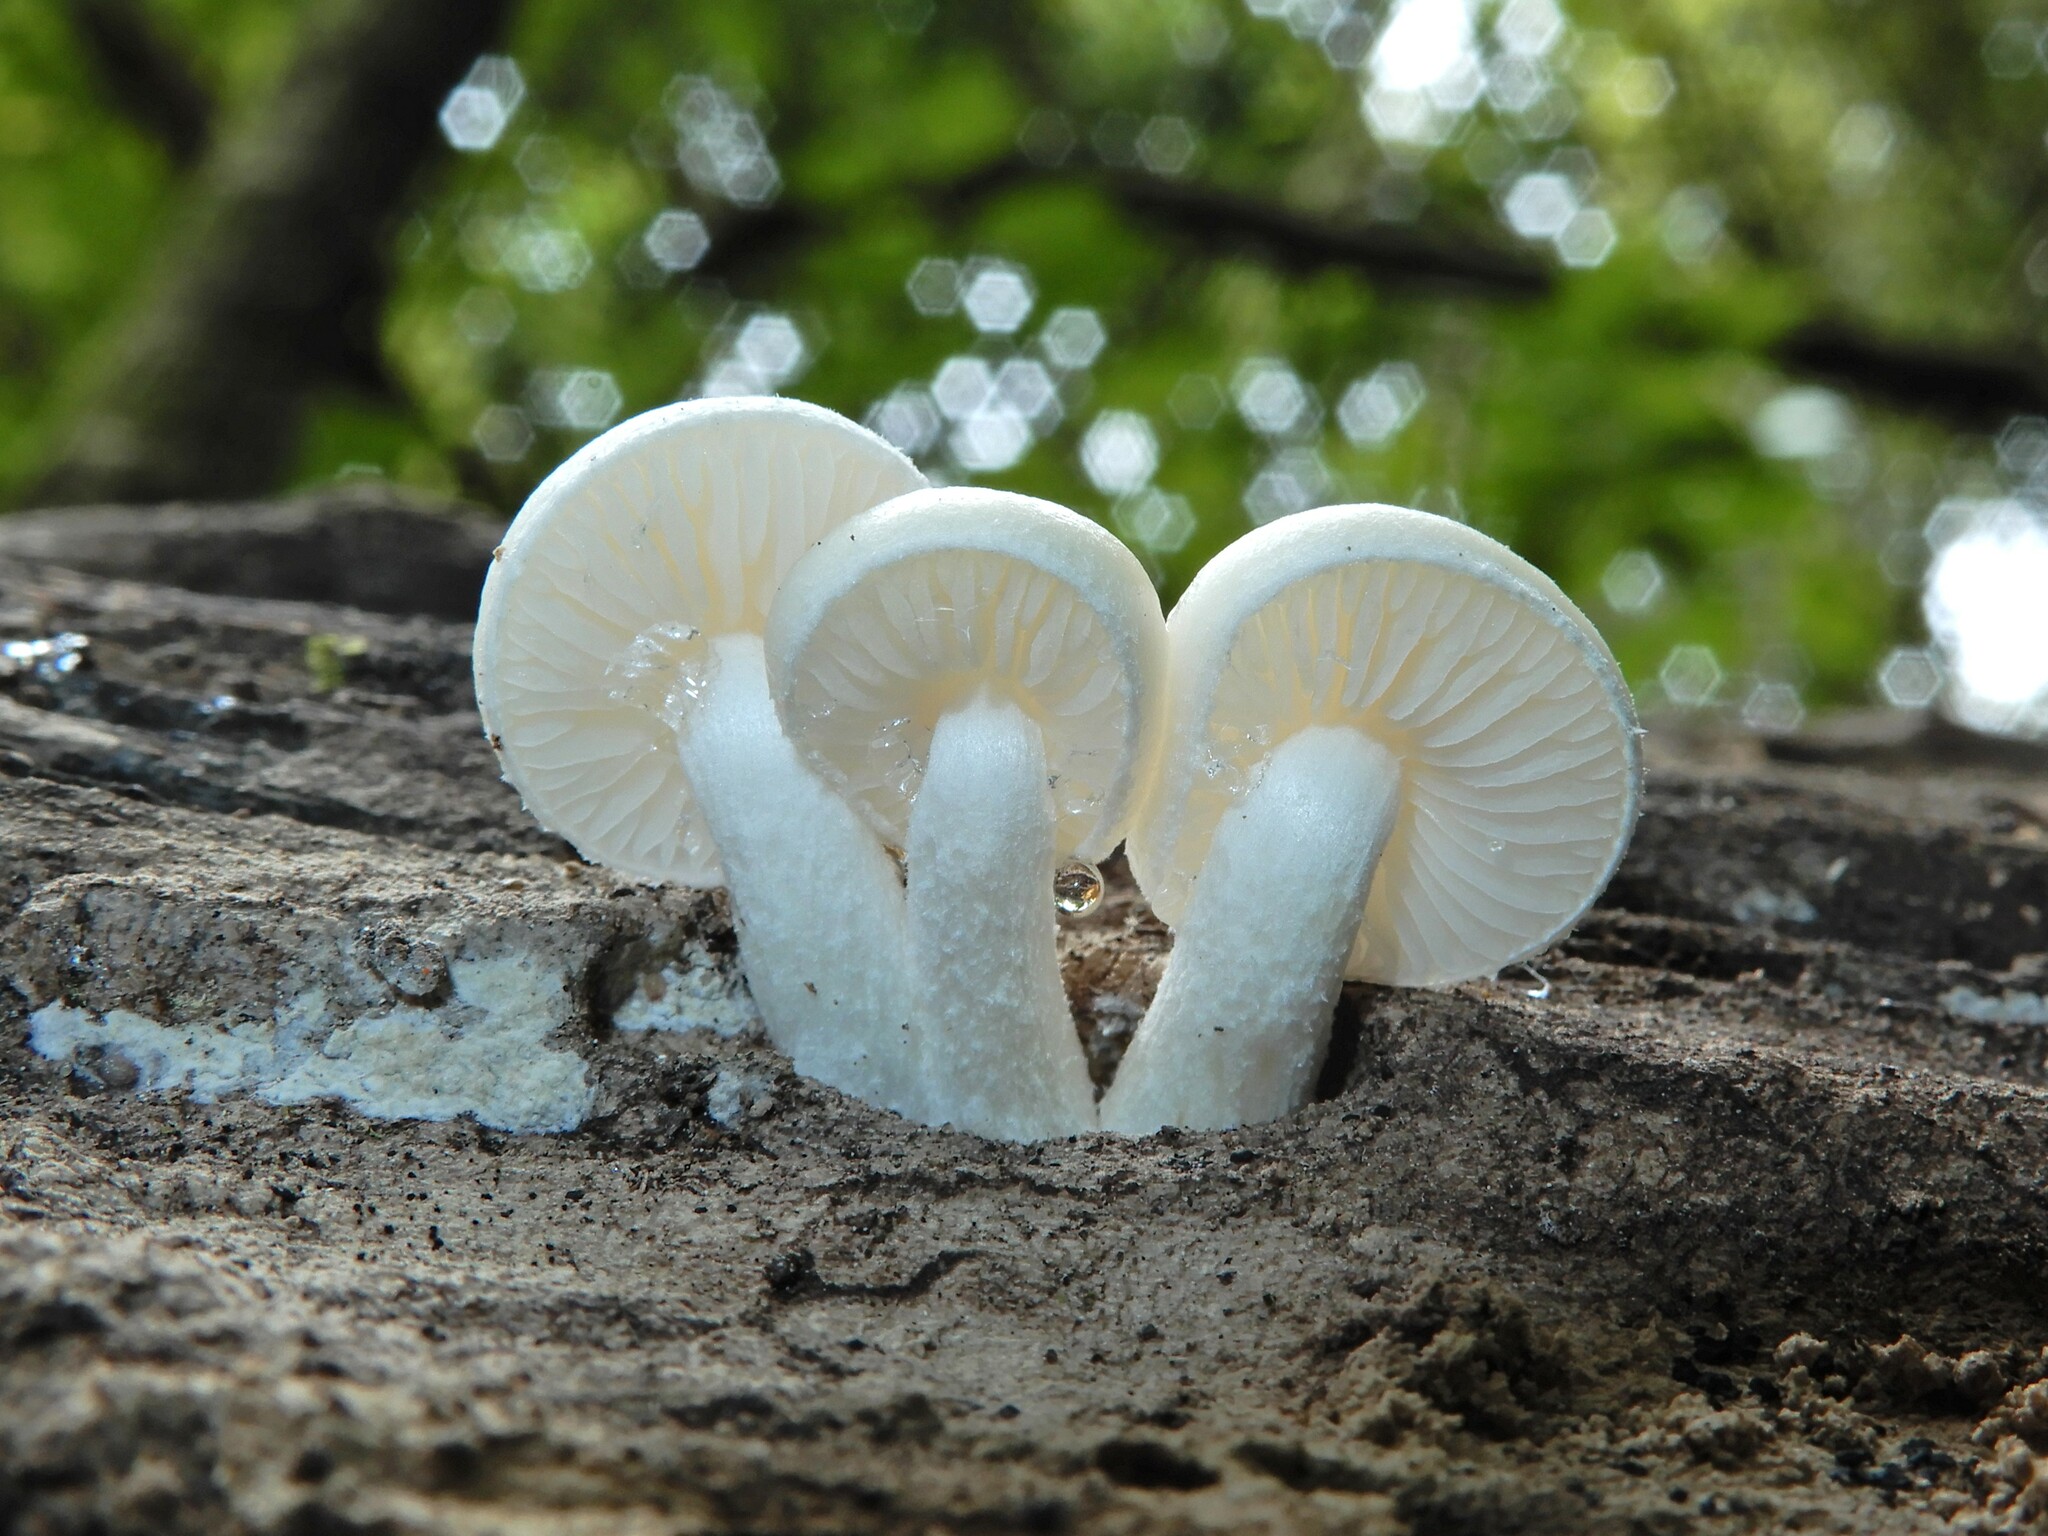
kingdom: Fungi
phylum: Basidiomycota
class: Agaricomycetes
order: Agaricales
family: Physalacriaceae
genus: Oudemansiella
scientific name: Oudemansiella australis
